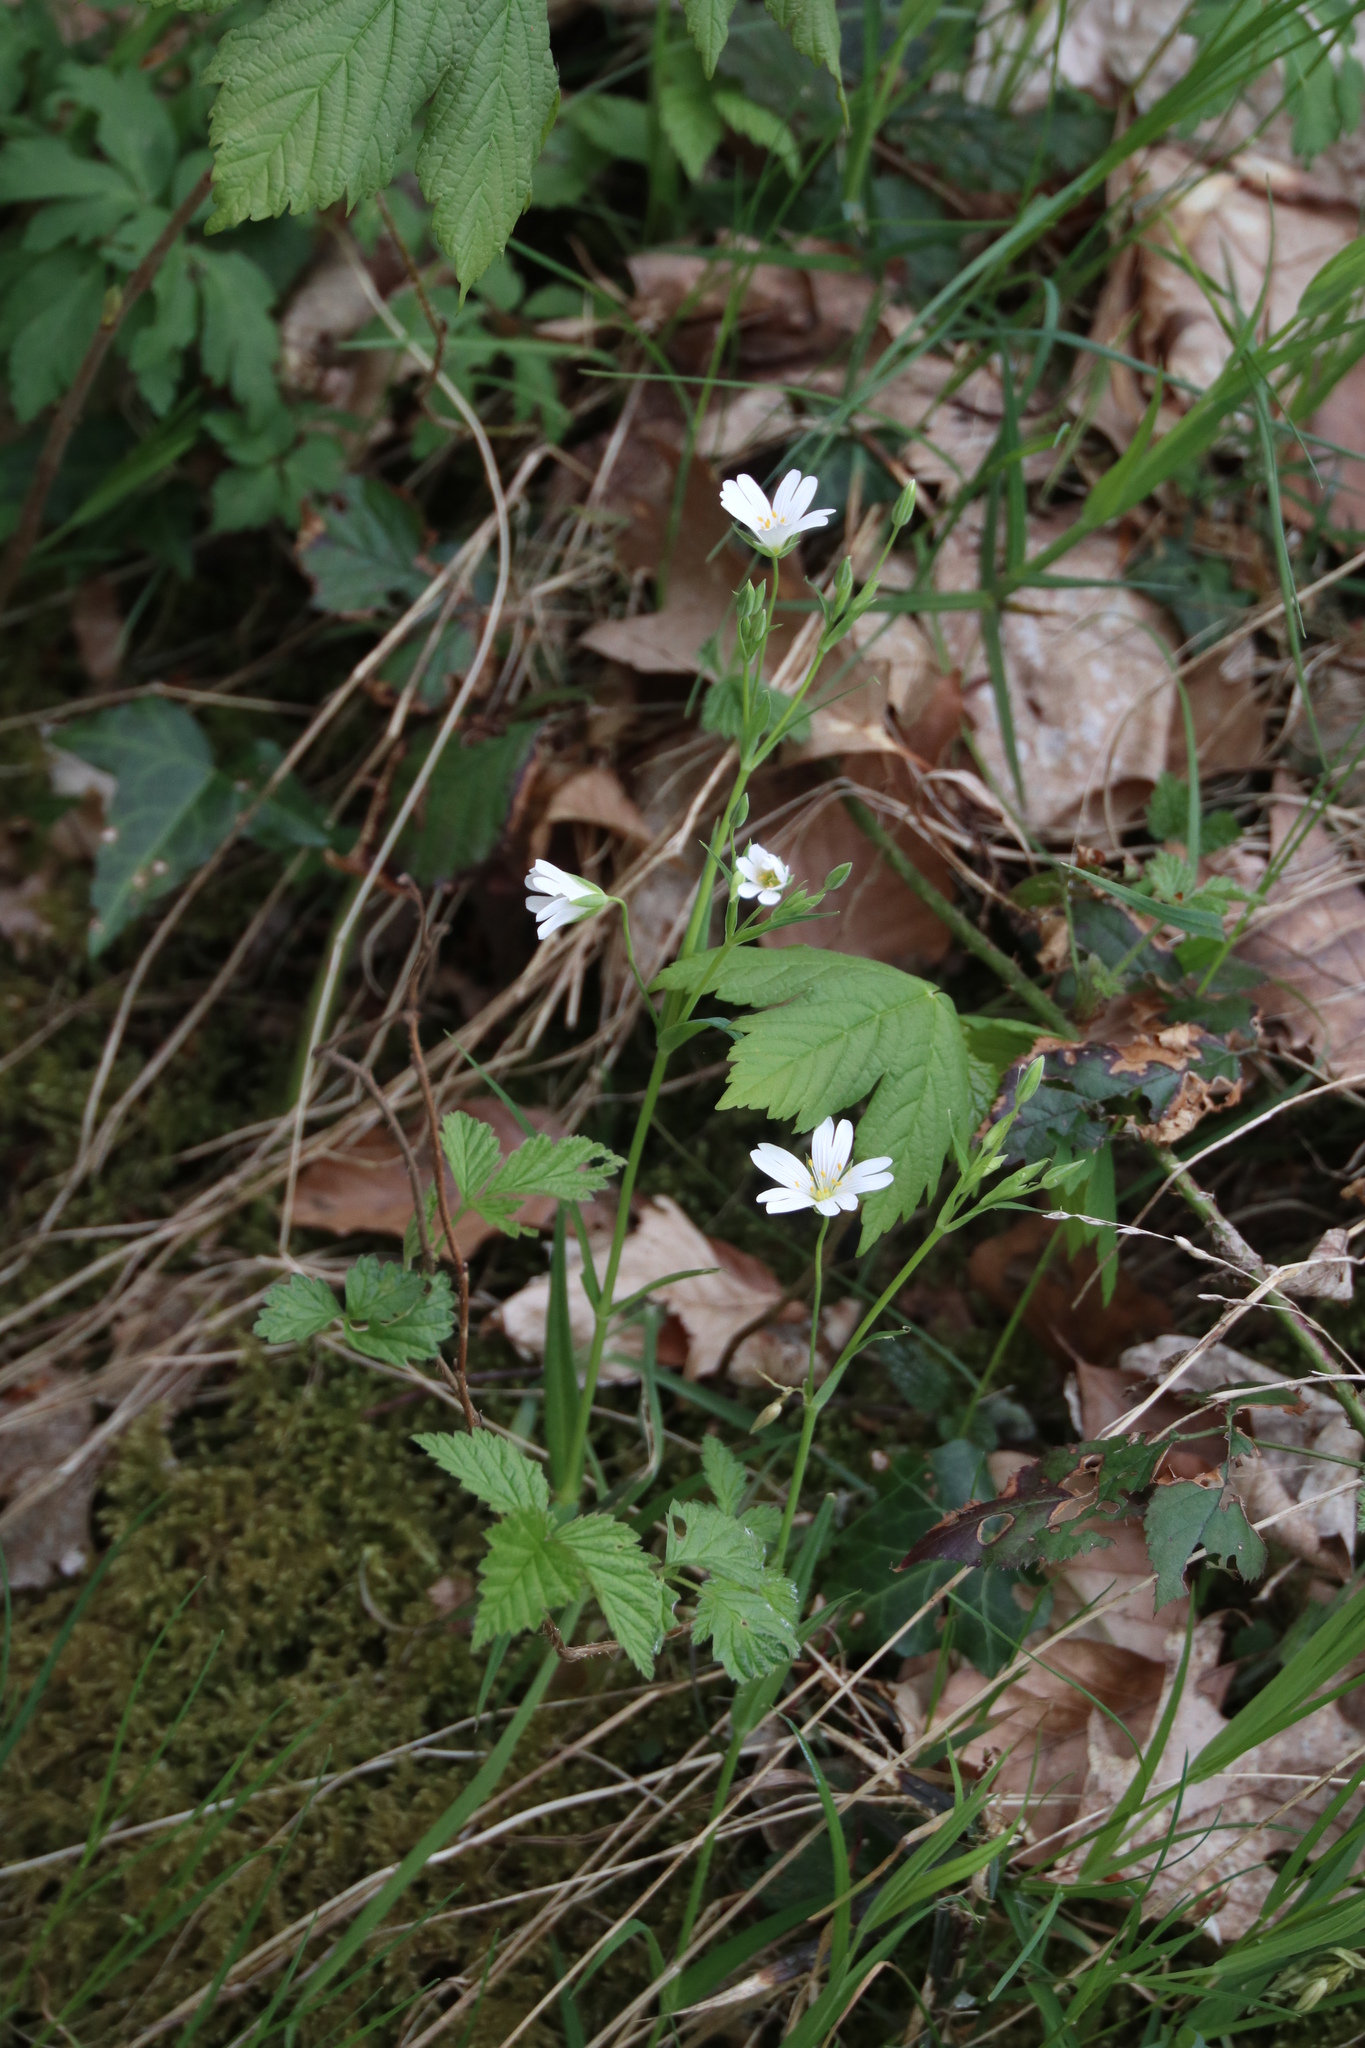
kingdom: Plantae
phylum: Tracheophyta
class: Magnoliopsida
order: Caryophyllales
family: Caryophyllaceae
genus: Rabelera
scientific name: Rabelera holostea
